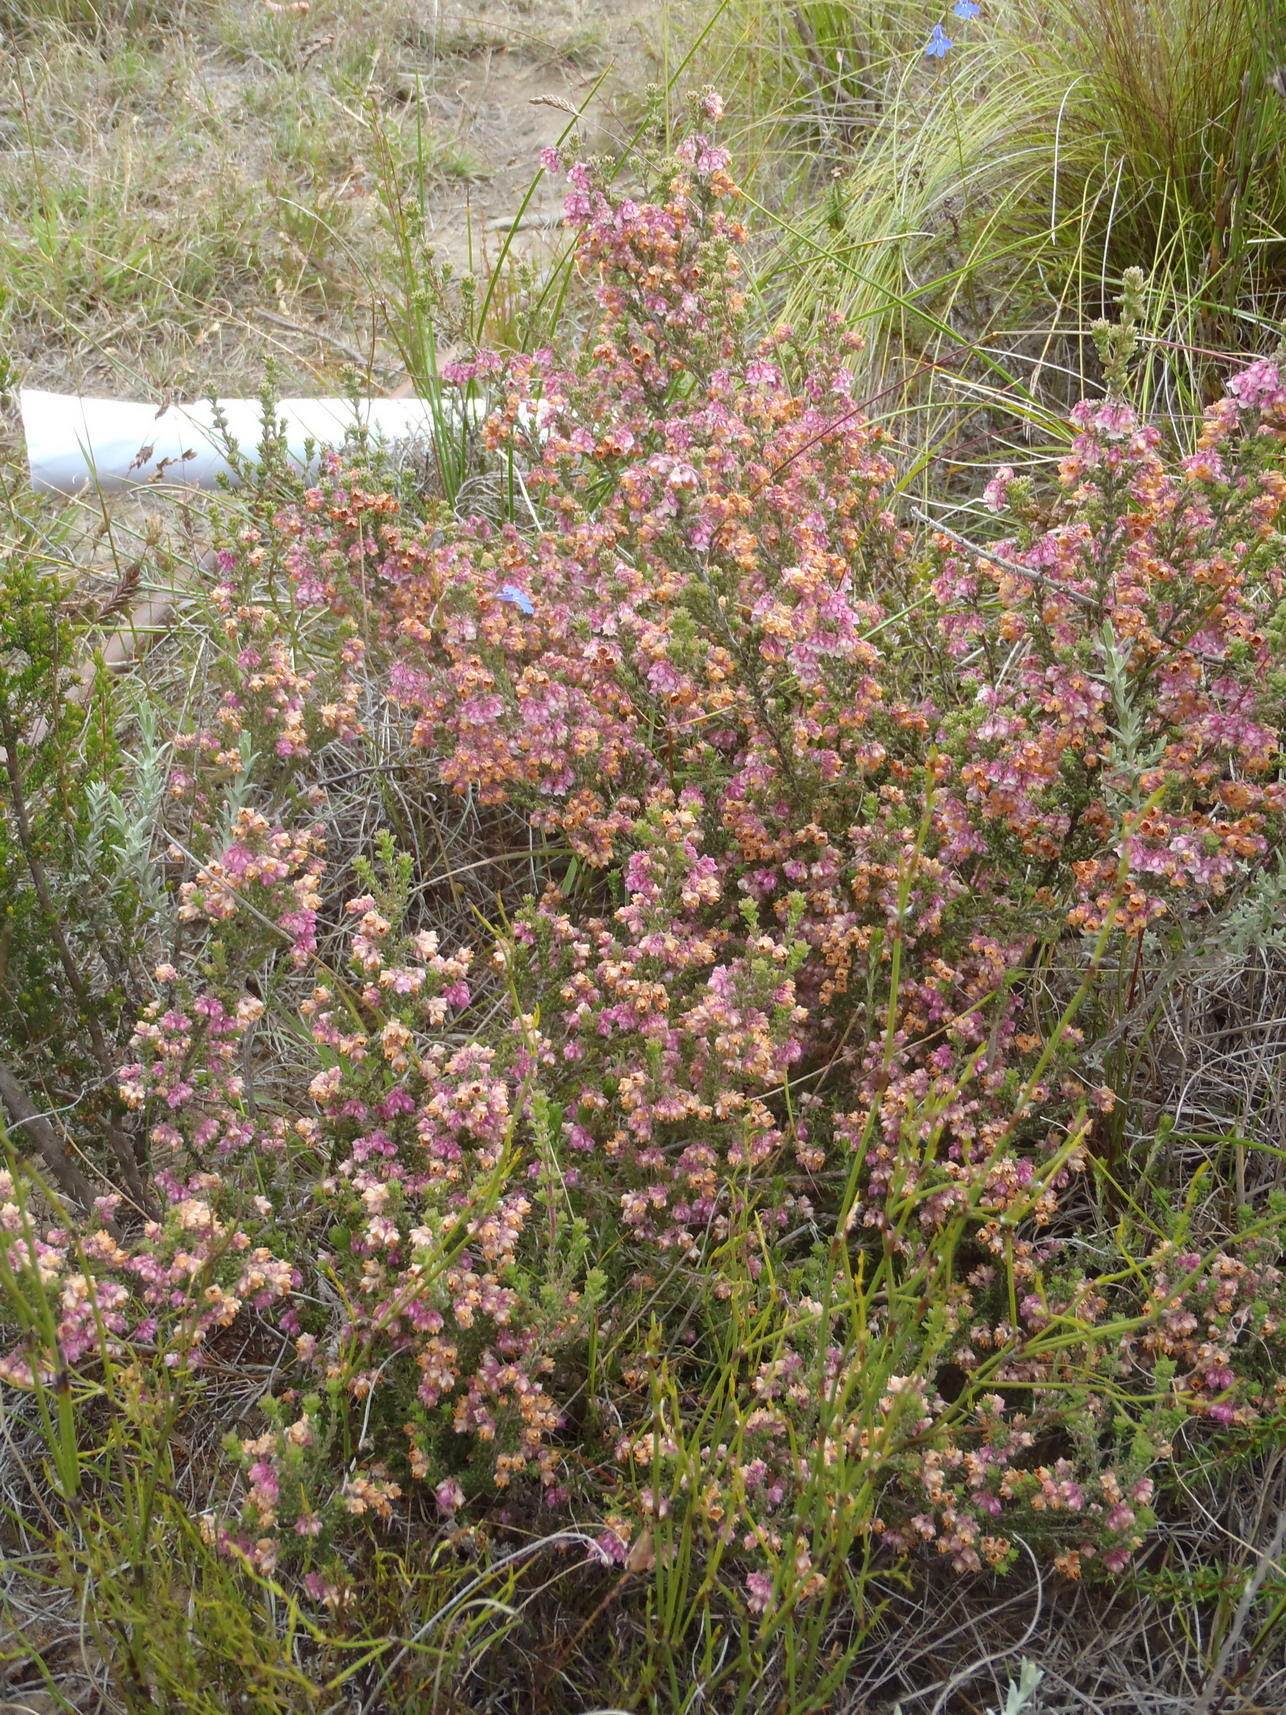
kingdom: Plantae
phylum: Tracheophyta
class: Magnoliopsida
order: Ericales
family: Ericaceae
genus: Erica
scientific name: Erica fimbriata
